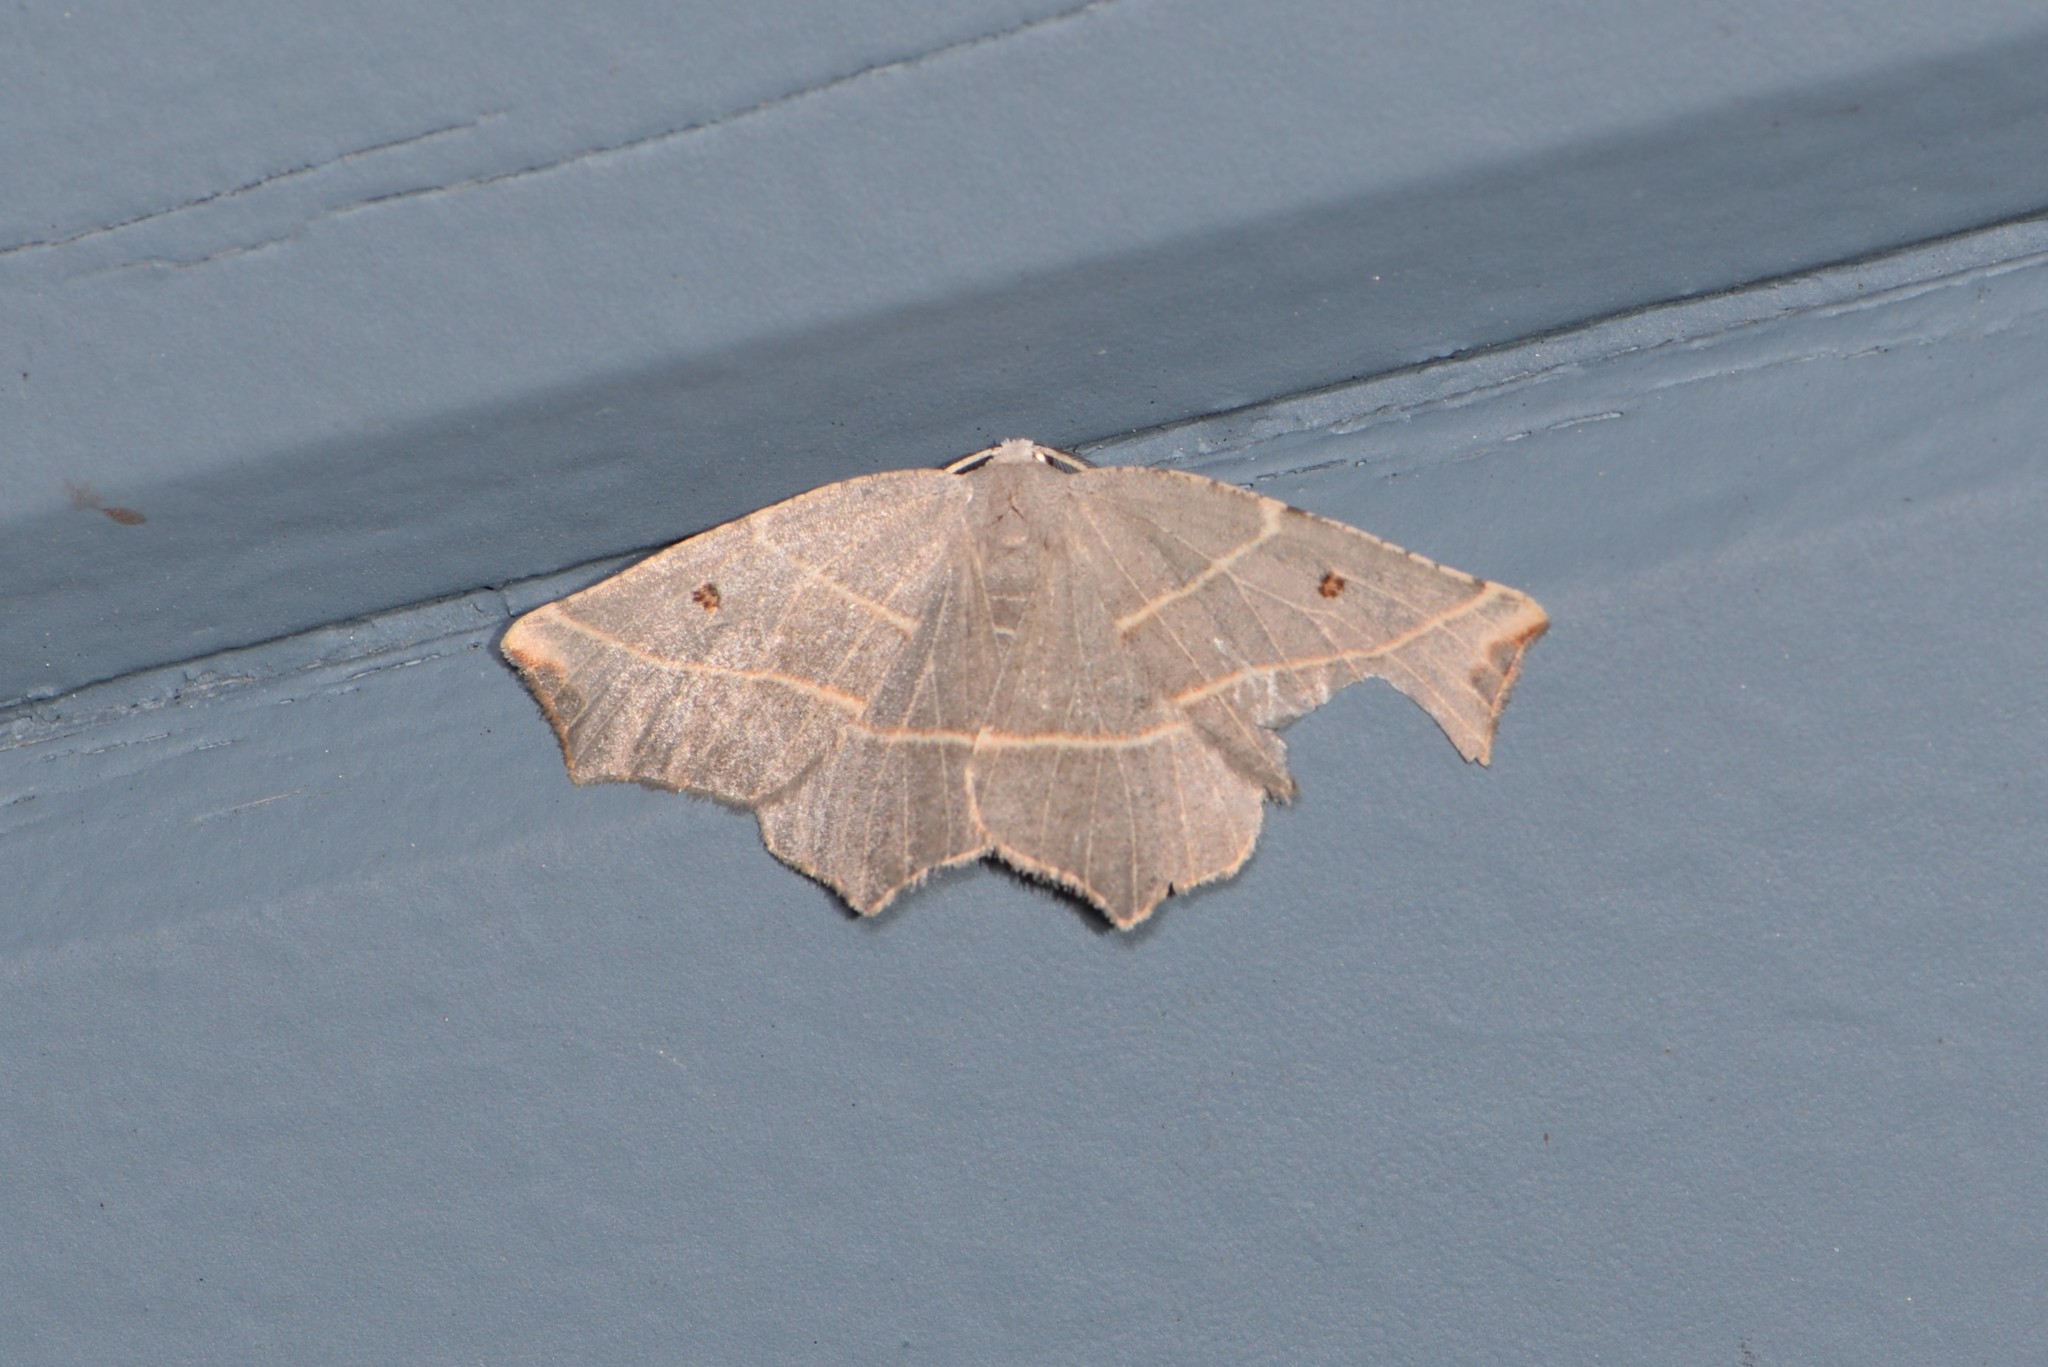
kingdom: Animalia
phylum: Arthropoda
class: Insecta
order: Lepidoptera
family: Geometridae
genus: Metanema
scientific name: Metanema inatomaria
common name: Pale metanema
